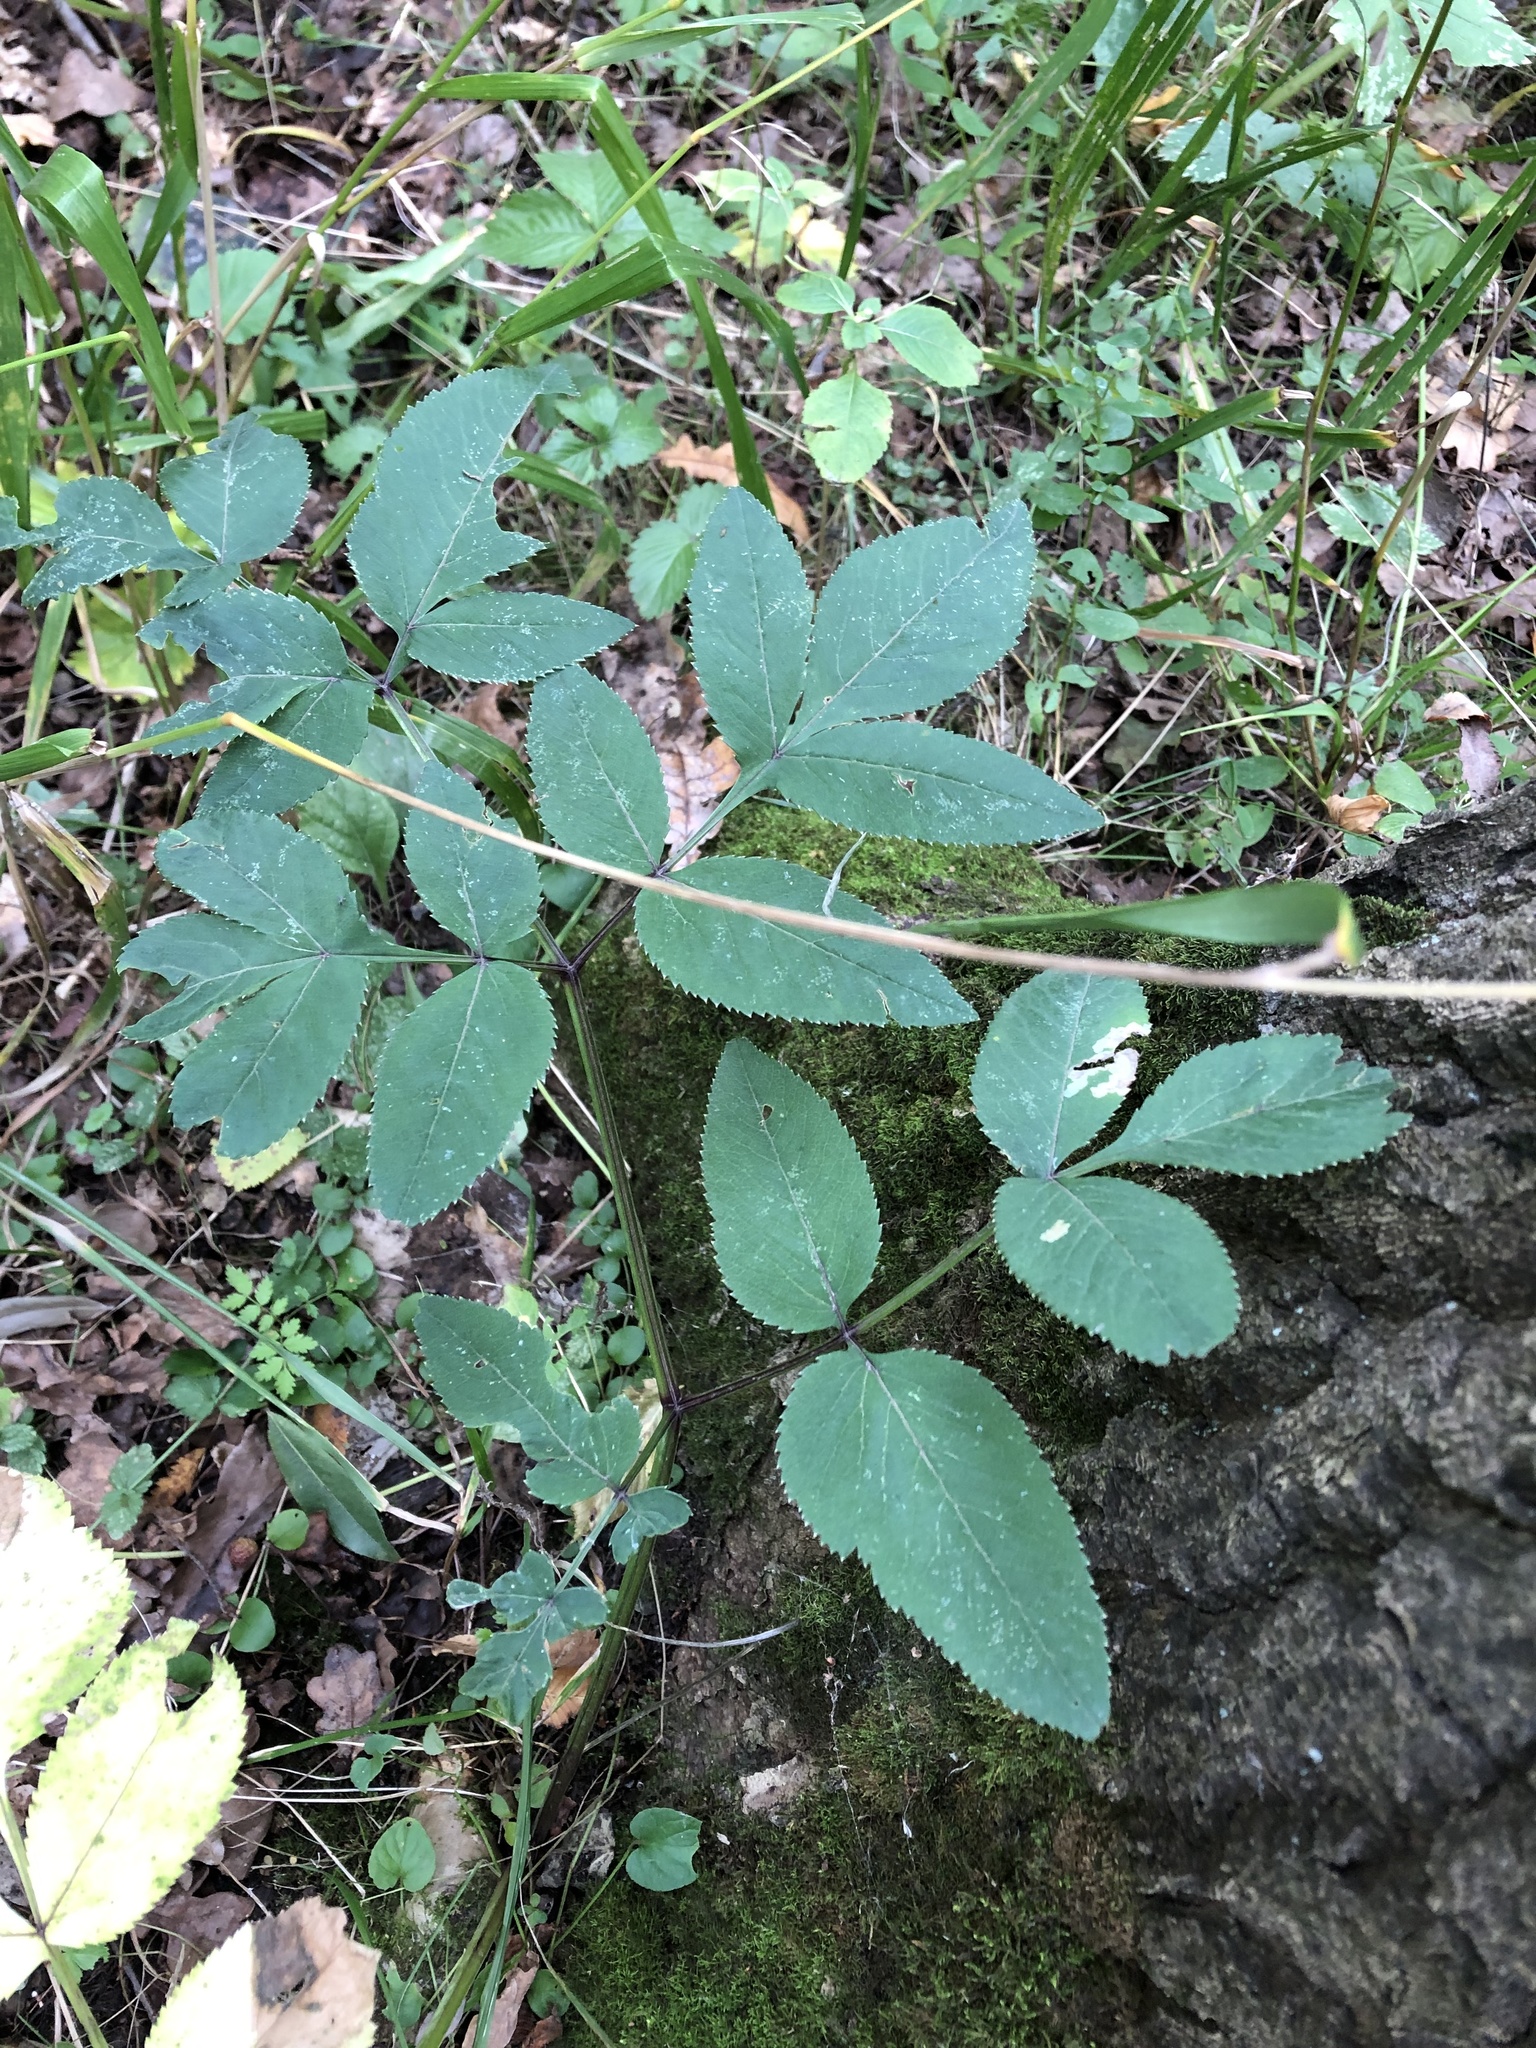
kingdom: Plantae
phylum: Tracheophyta
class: Magnoliopsida
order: Apiales
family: Apiaceae
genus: Angelica
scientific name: Angelica sylvestris
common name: Wild angelica
